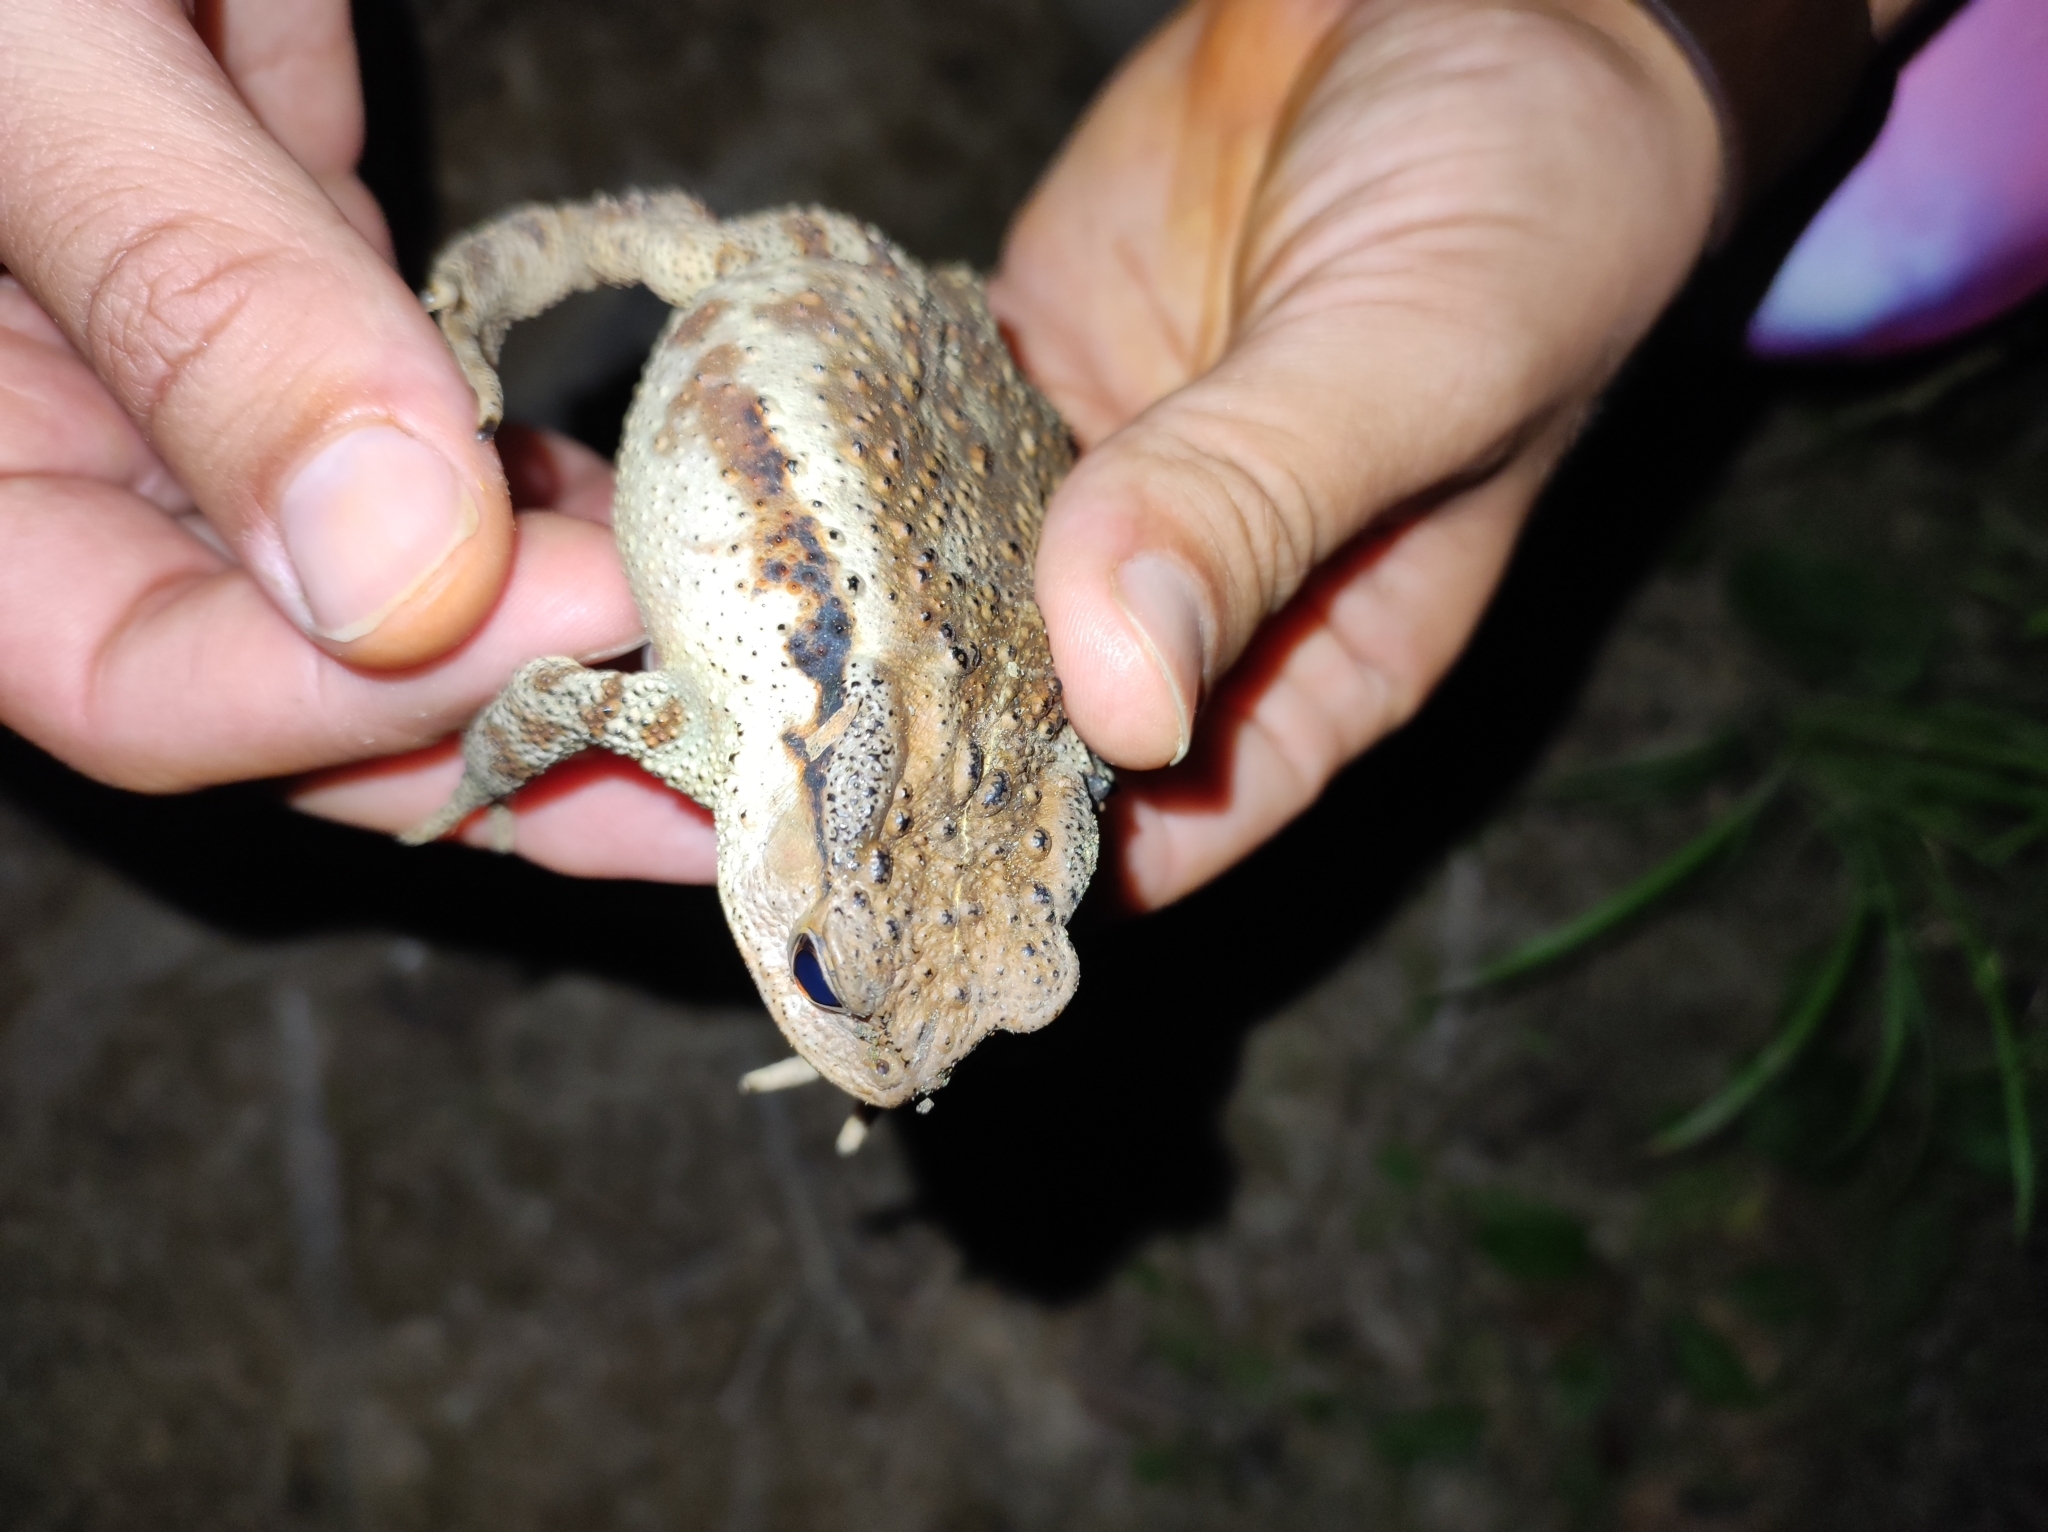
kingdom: Animalia
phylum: Chordata
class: Amphibia
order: Anura
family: Bufonidae
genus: Bufo
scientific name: Bufo gargarizans
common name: Asiatic toad
